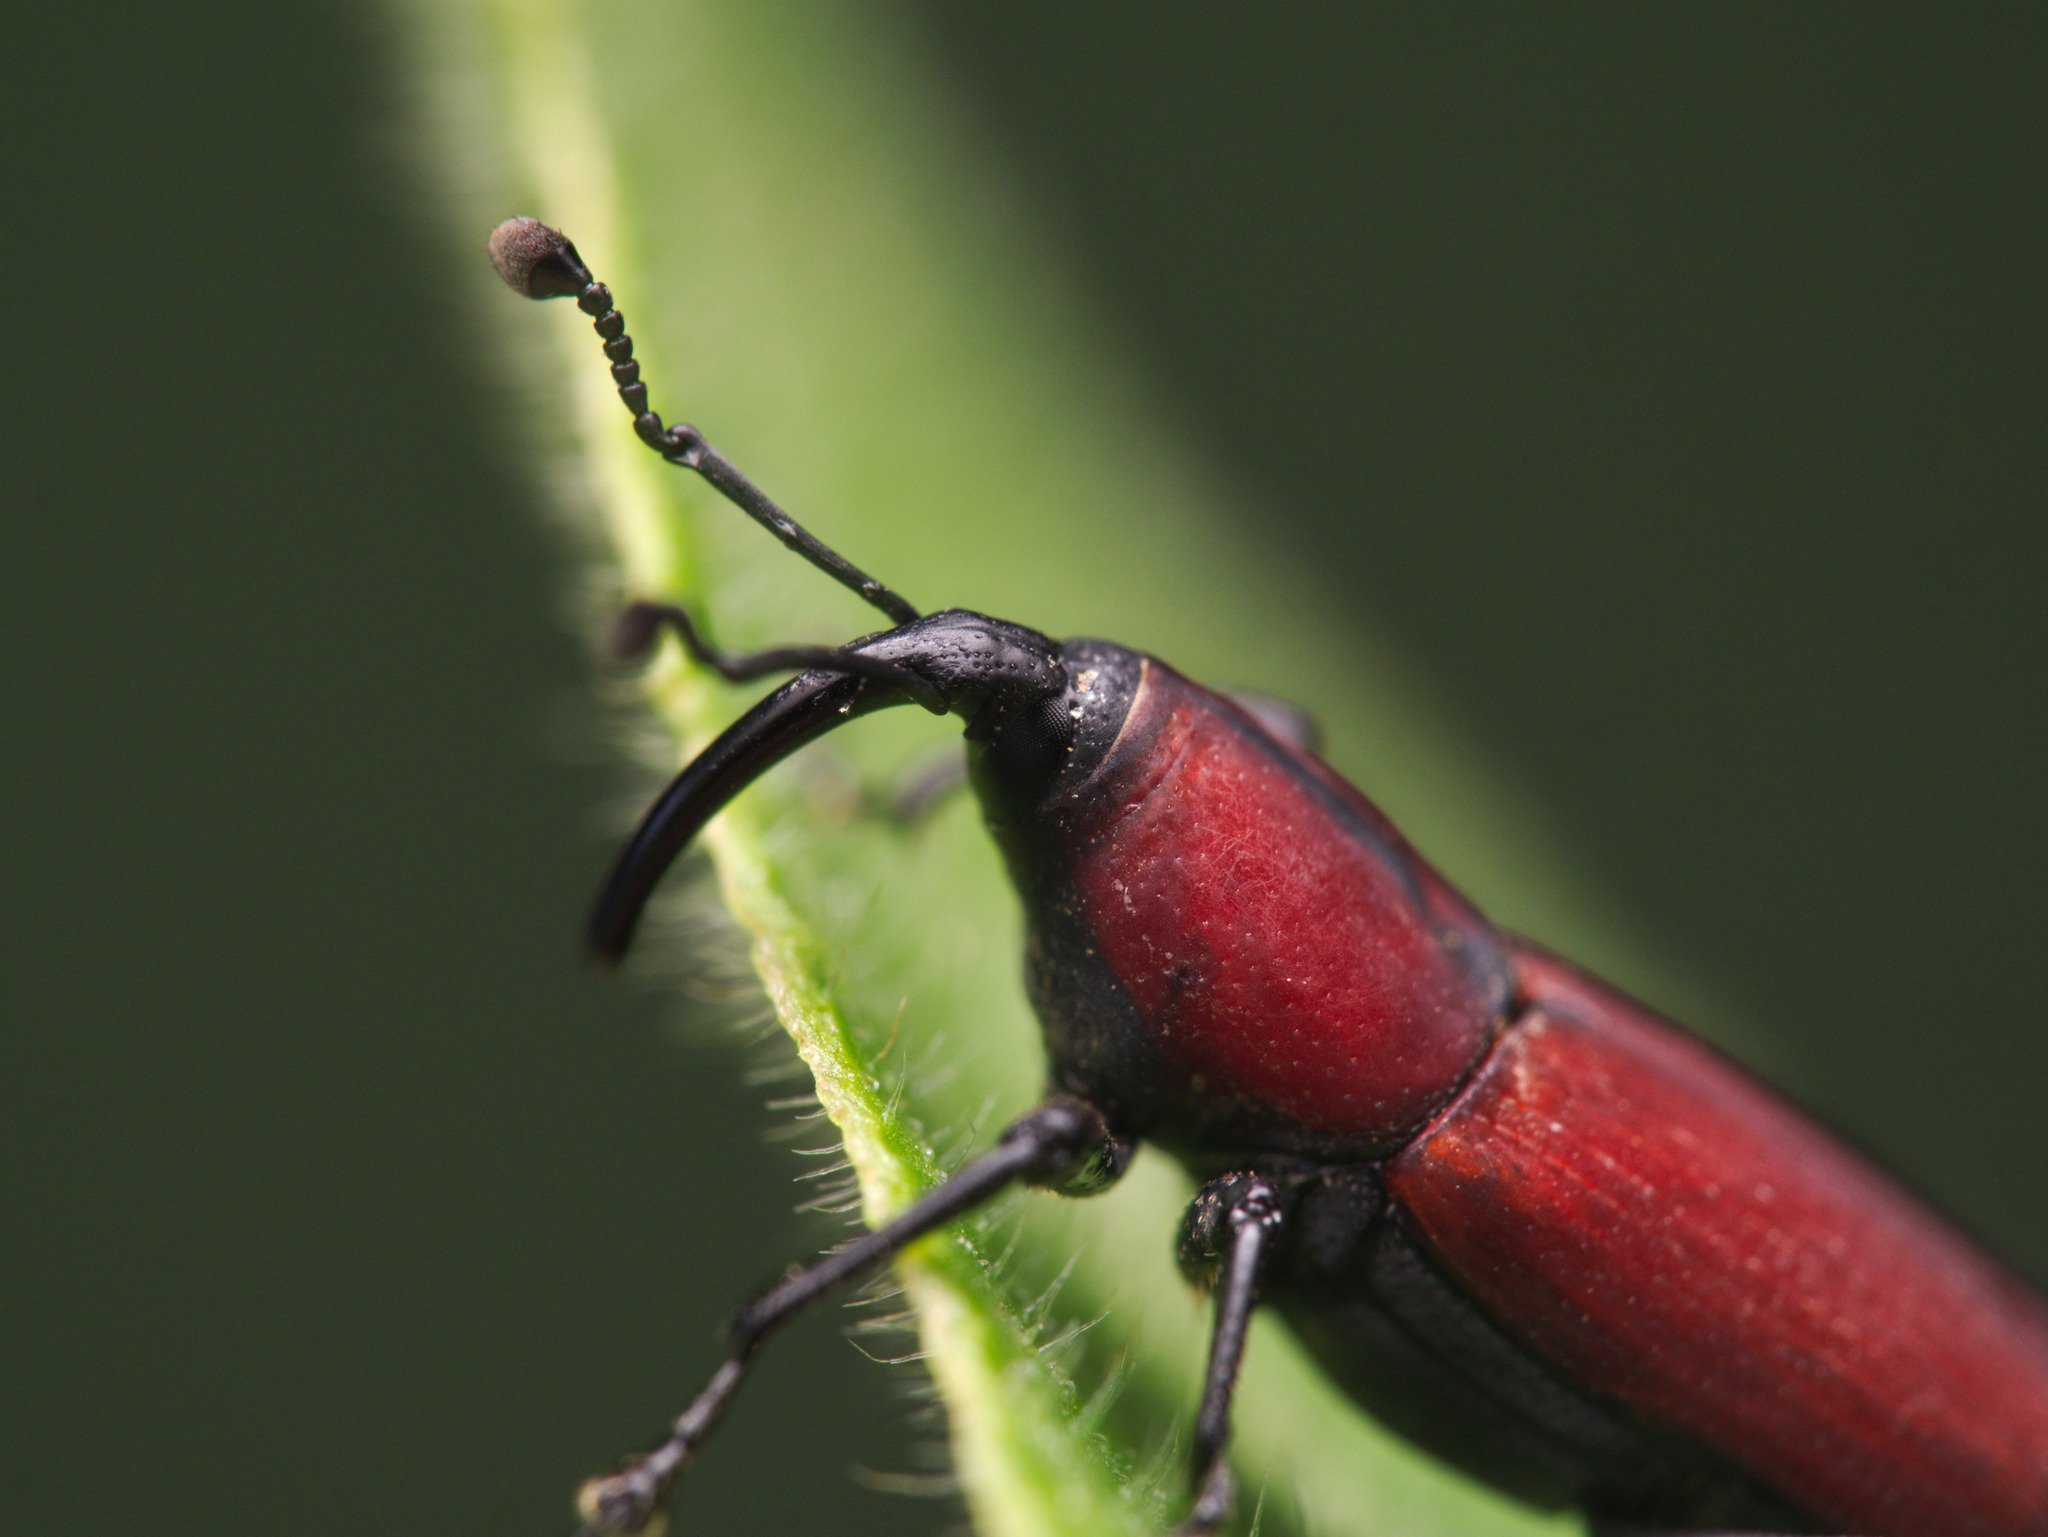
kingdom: Animalia
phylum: Arthropoda
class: Insecta
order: Coleoptera
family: Dryophthoridae
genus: Rhodobaenus
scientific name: Rhodobaenus sanguineus
